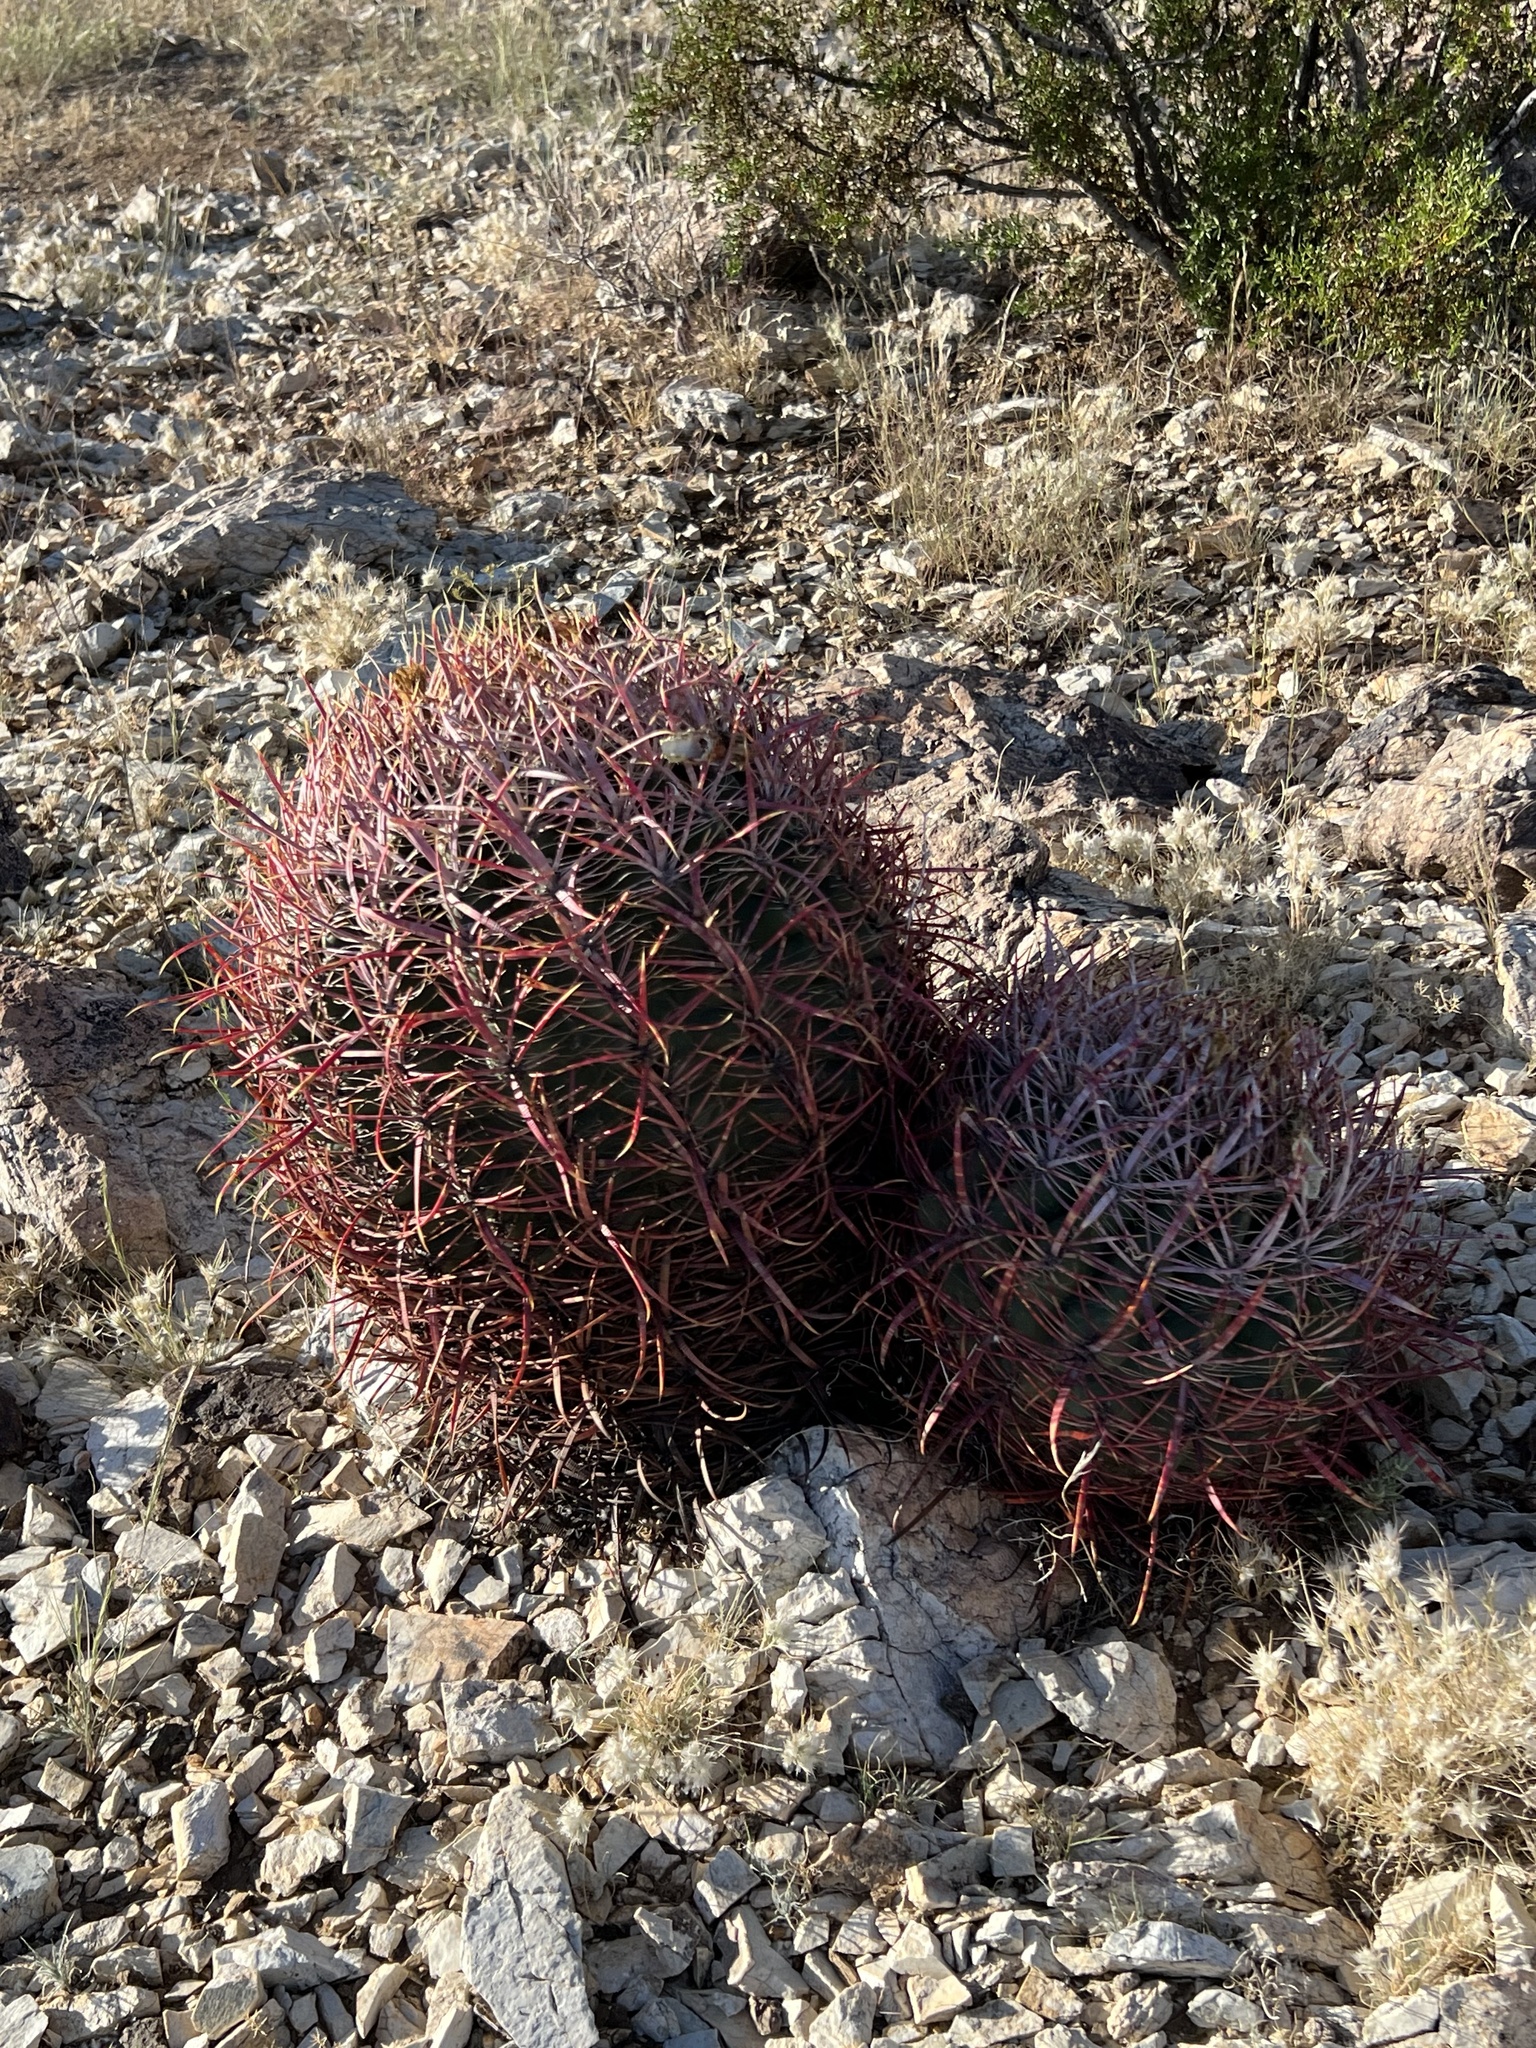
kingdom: Plantae
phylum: Tracheophyta
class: Magnoliopsida
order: Caryophyllales
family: Cactaceae
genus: Ferocactus
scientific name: Ferocactus cylindraceus
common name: California barrel cactus
